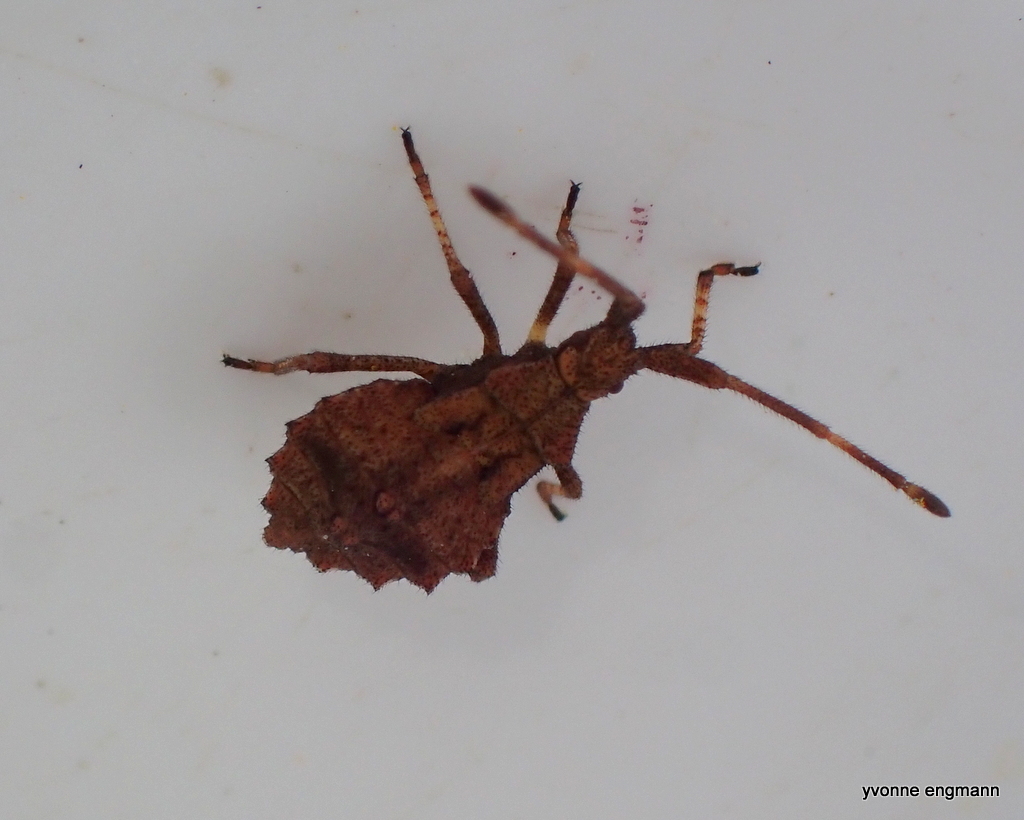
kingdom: Animalia
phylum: Arthropoda
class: Insecta
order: Hemiptera
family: Coreidae
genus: Coreus
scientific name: Coreus marginatus
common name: Dock bug
